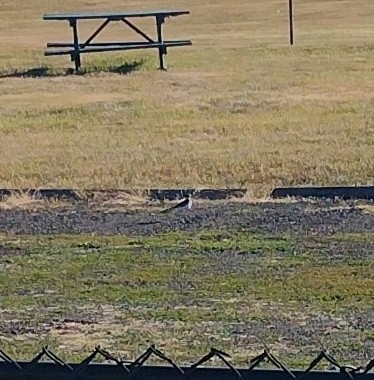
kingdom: Animalia
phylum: Chordata
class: Aves
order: Charadriiformes
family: Charadriidae
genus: Charadrius
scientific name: Charadrius vociferus
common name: Killdeer
